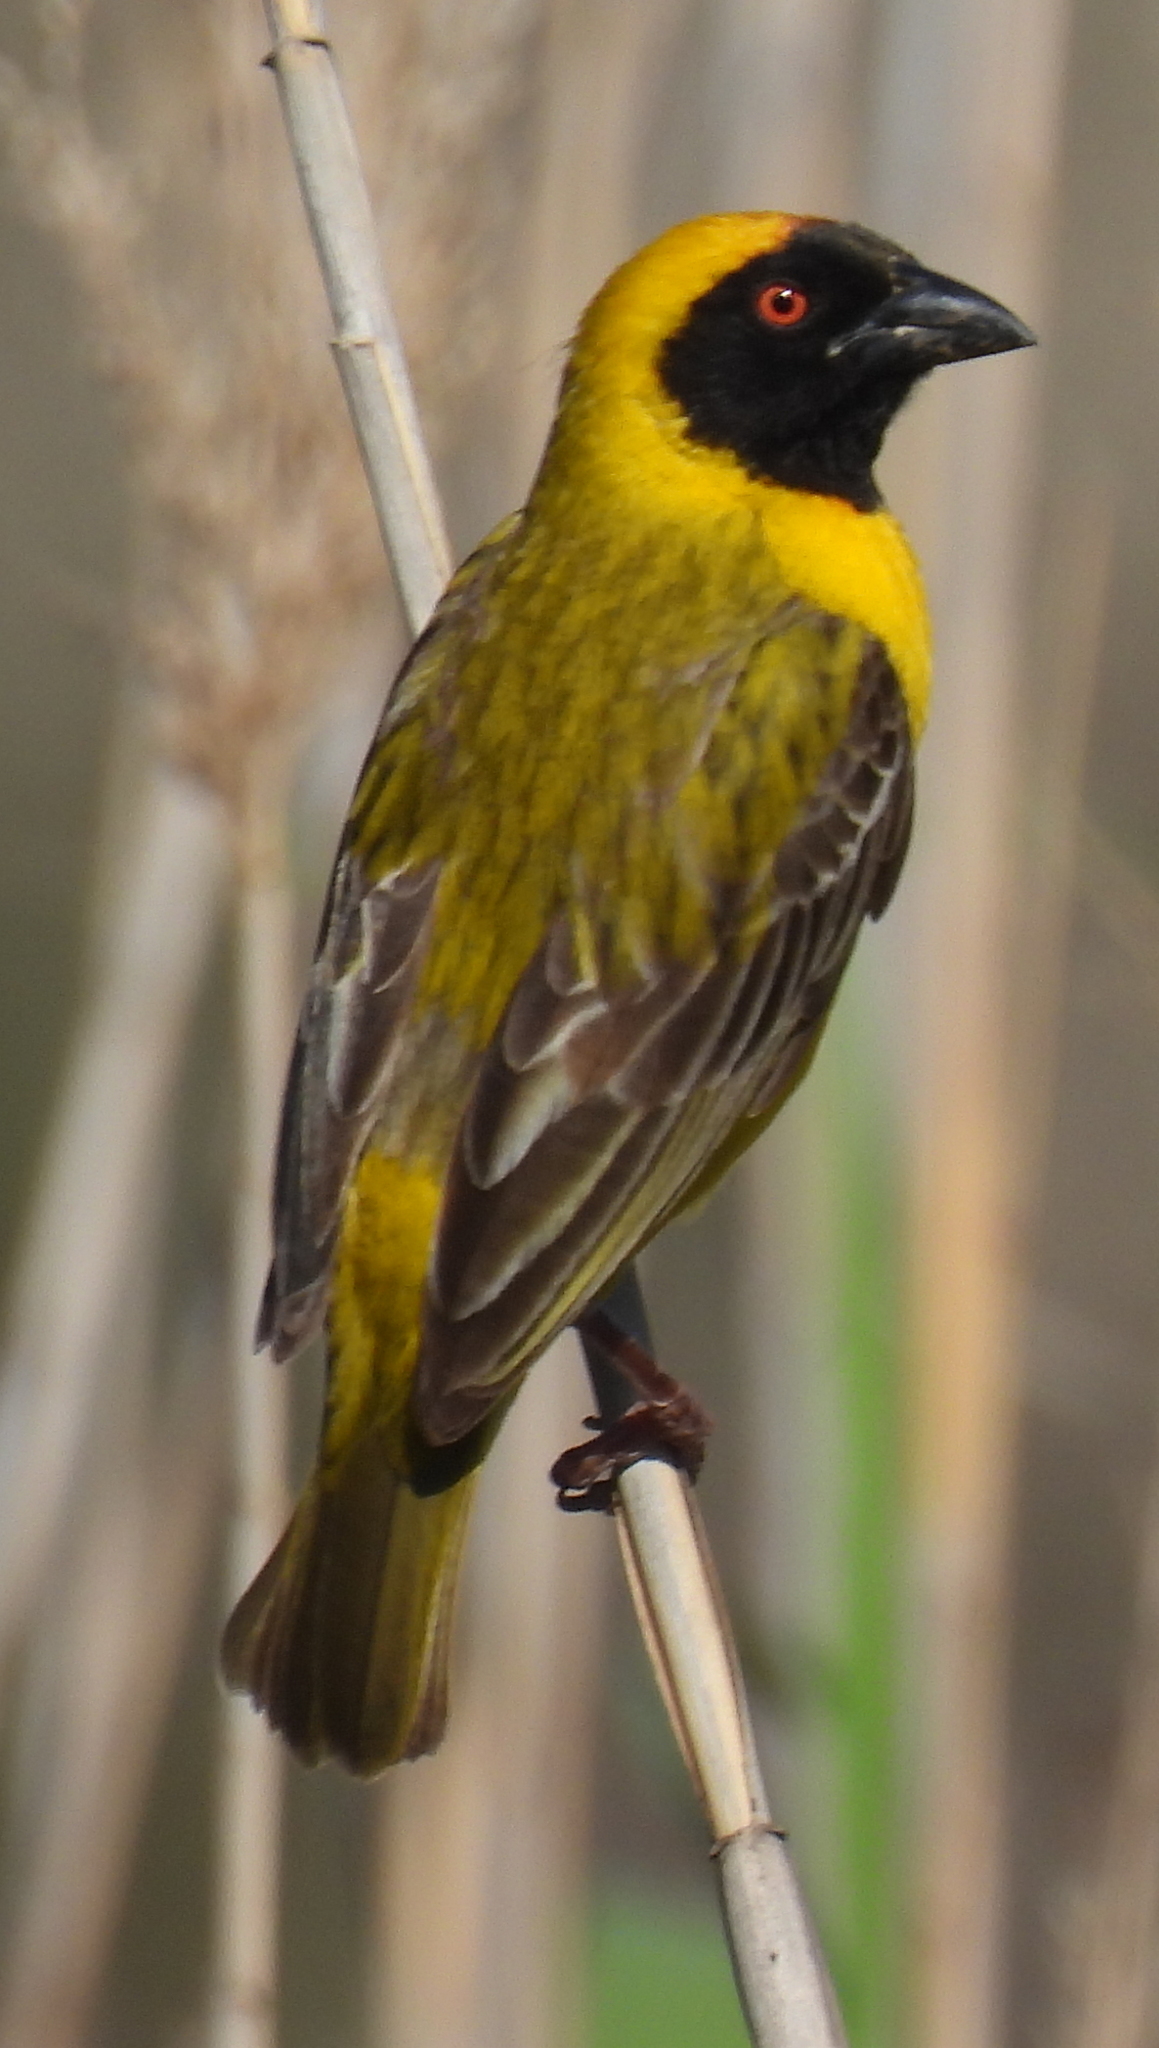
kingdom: Animalia
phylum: Chordata
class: Aves
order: Passeriformes
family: Ploceidae
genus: Ploceus
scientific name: Ploceus velatus
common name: Southern masked weaver
